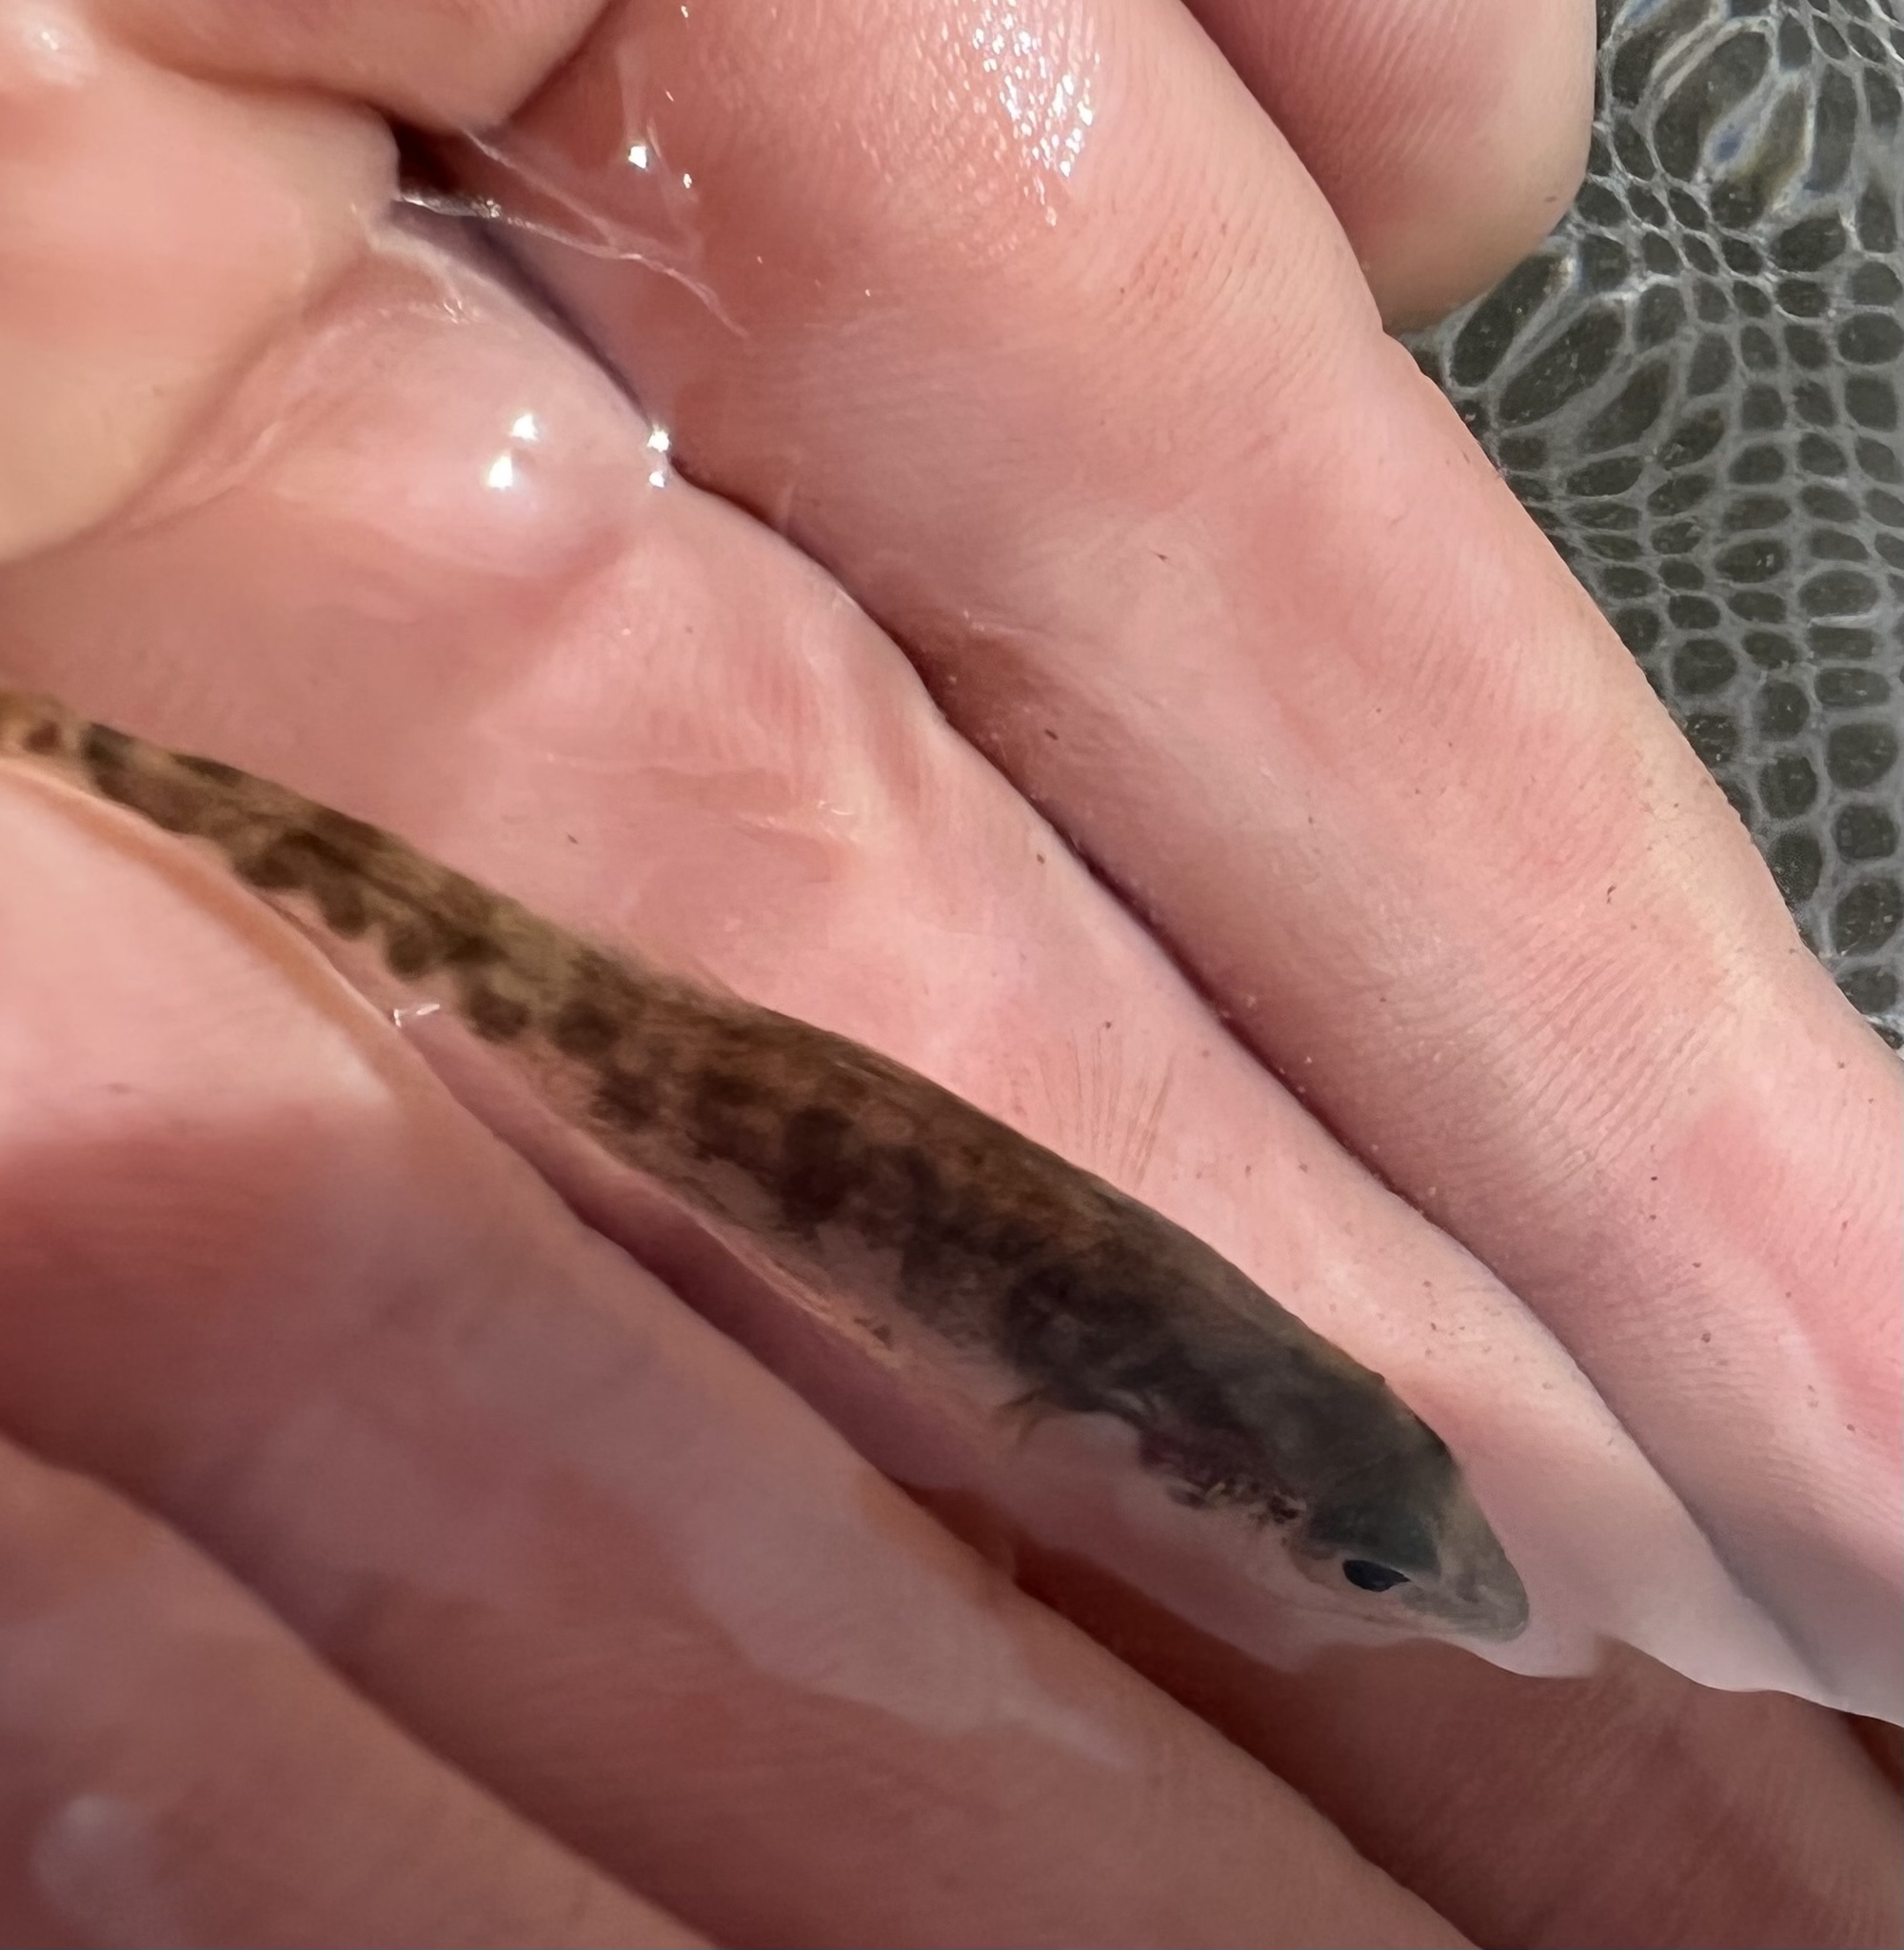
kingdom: Animalia
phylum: Chordata
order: Gasterosteiformes
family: Gasterosteidae
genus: Gasterosteus
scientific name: Gasterosteus aculeatus
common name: Three-spined stickleback
